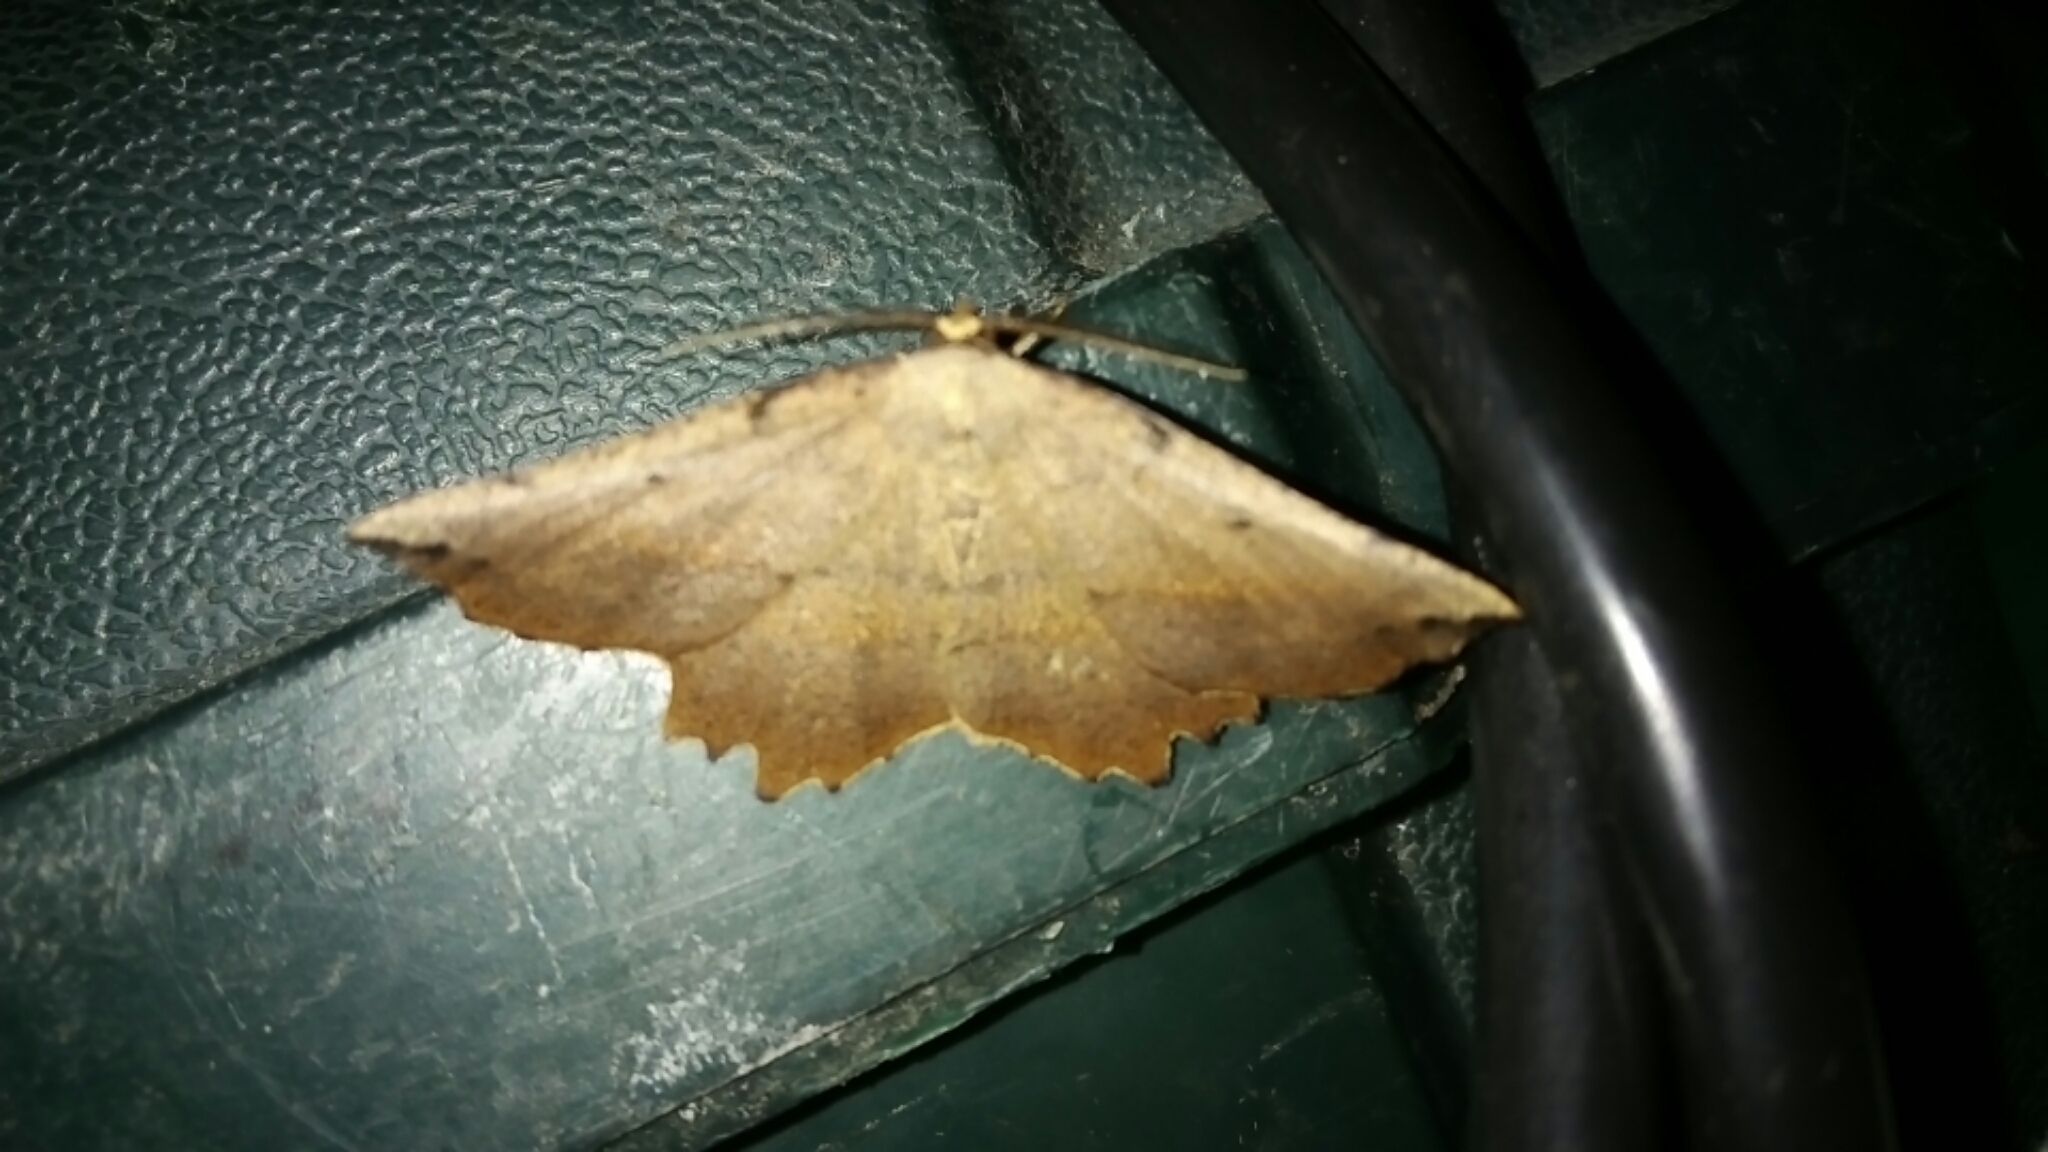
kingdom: Animalia
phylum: Arthropoda
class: Insecta
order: Lepidoptera
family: Geometridae
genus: Euchlaena
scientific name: Euchlaena obtusaria
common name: Obtuse euchlaena moth
